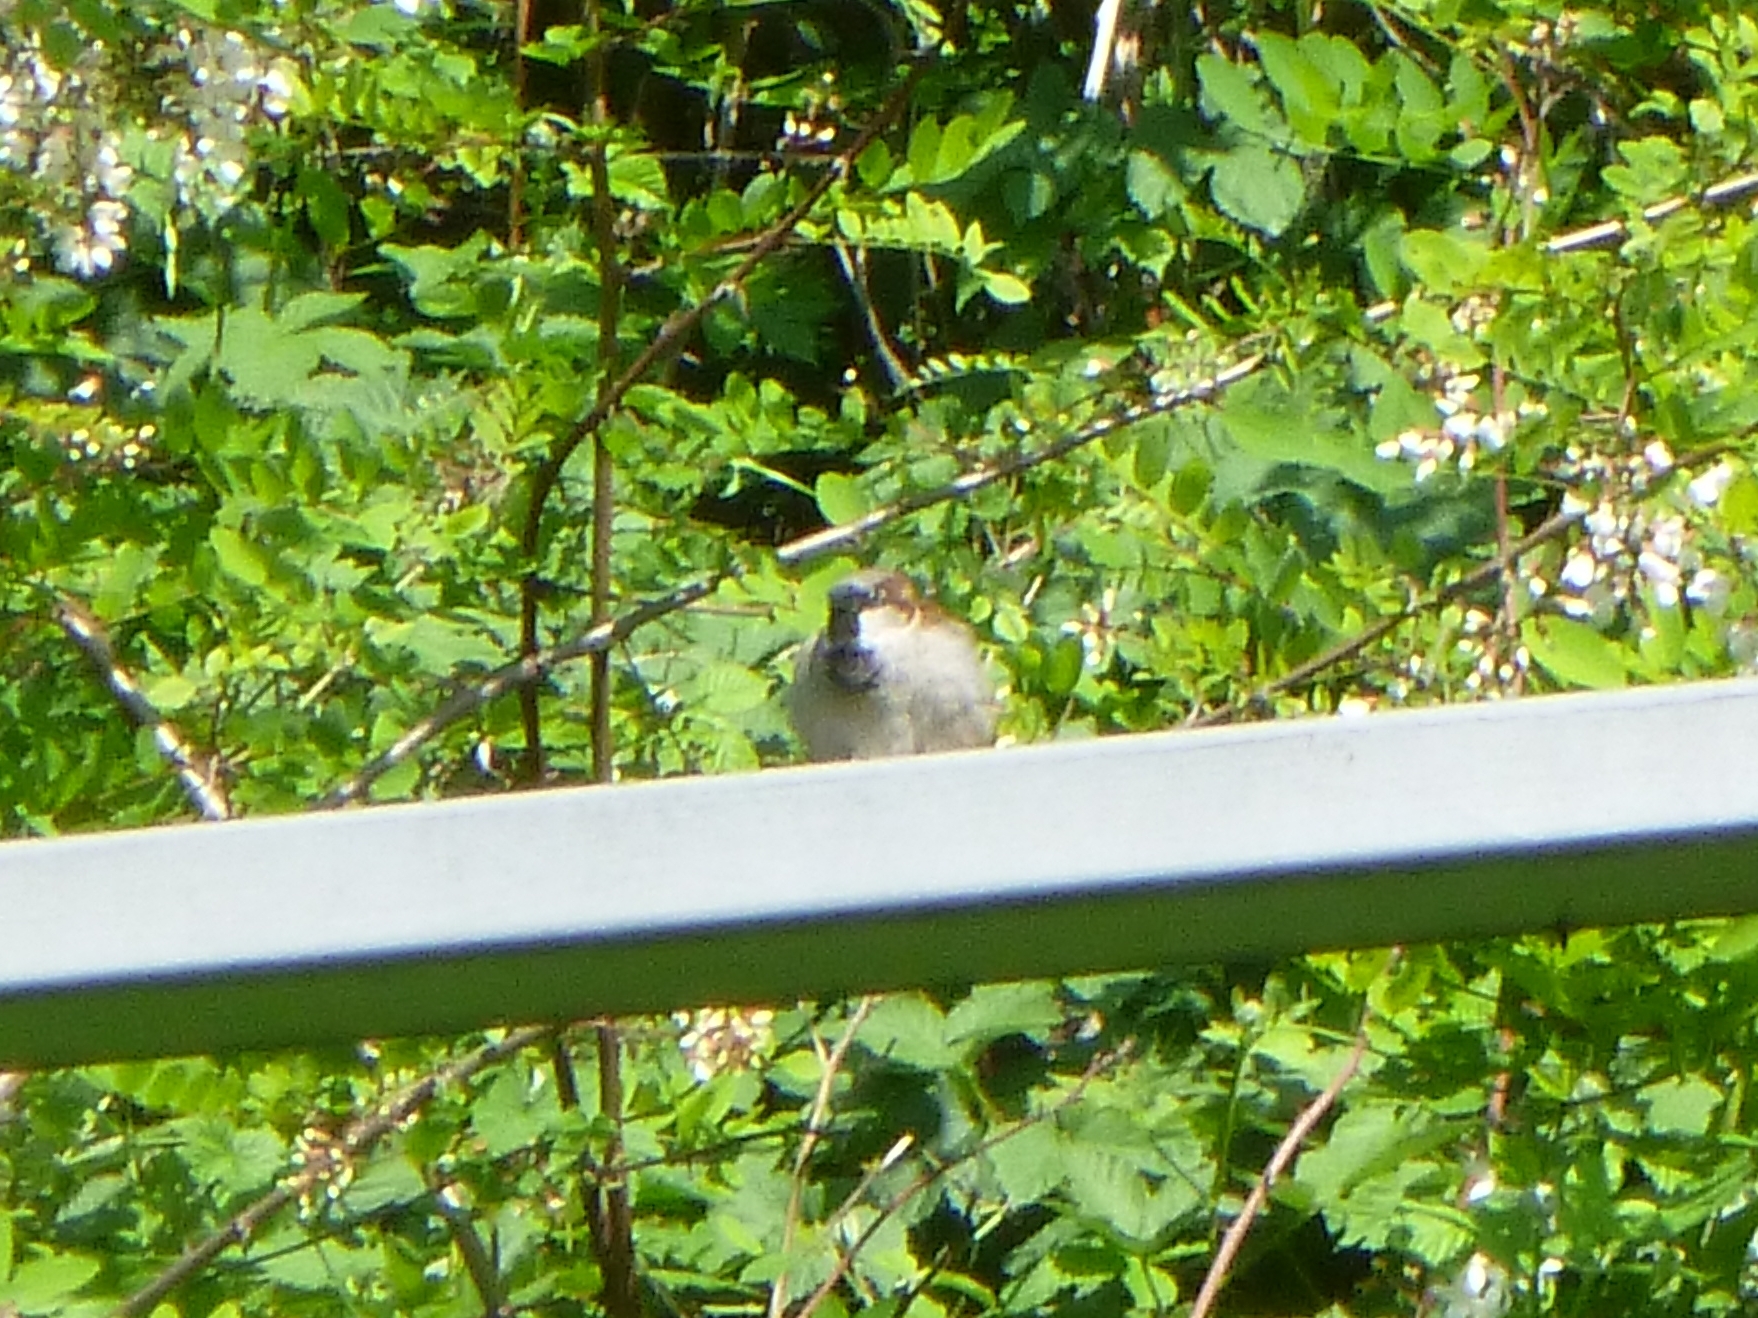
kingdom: Animalia
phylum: Chordata
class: Aves
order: Passeriformes
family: Passeridae
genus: Passer
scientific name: Passer domesticus
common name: House sparrow
